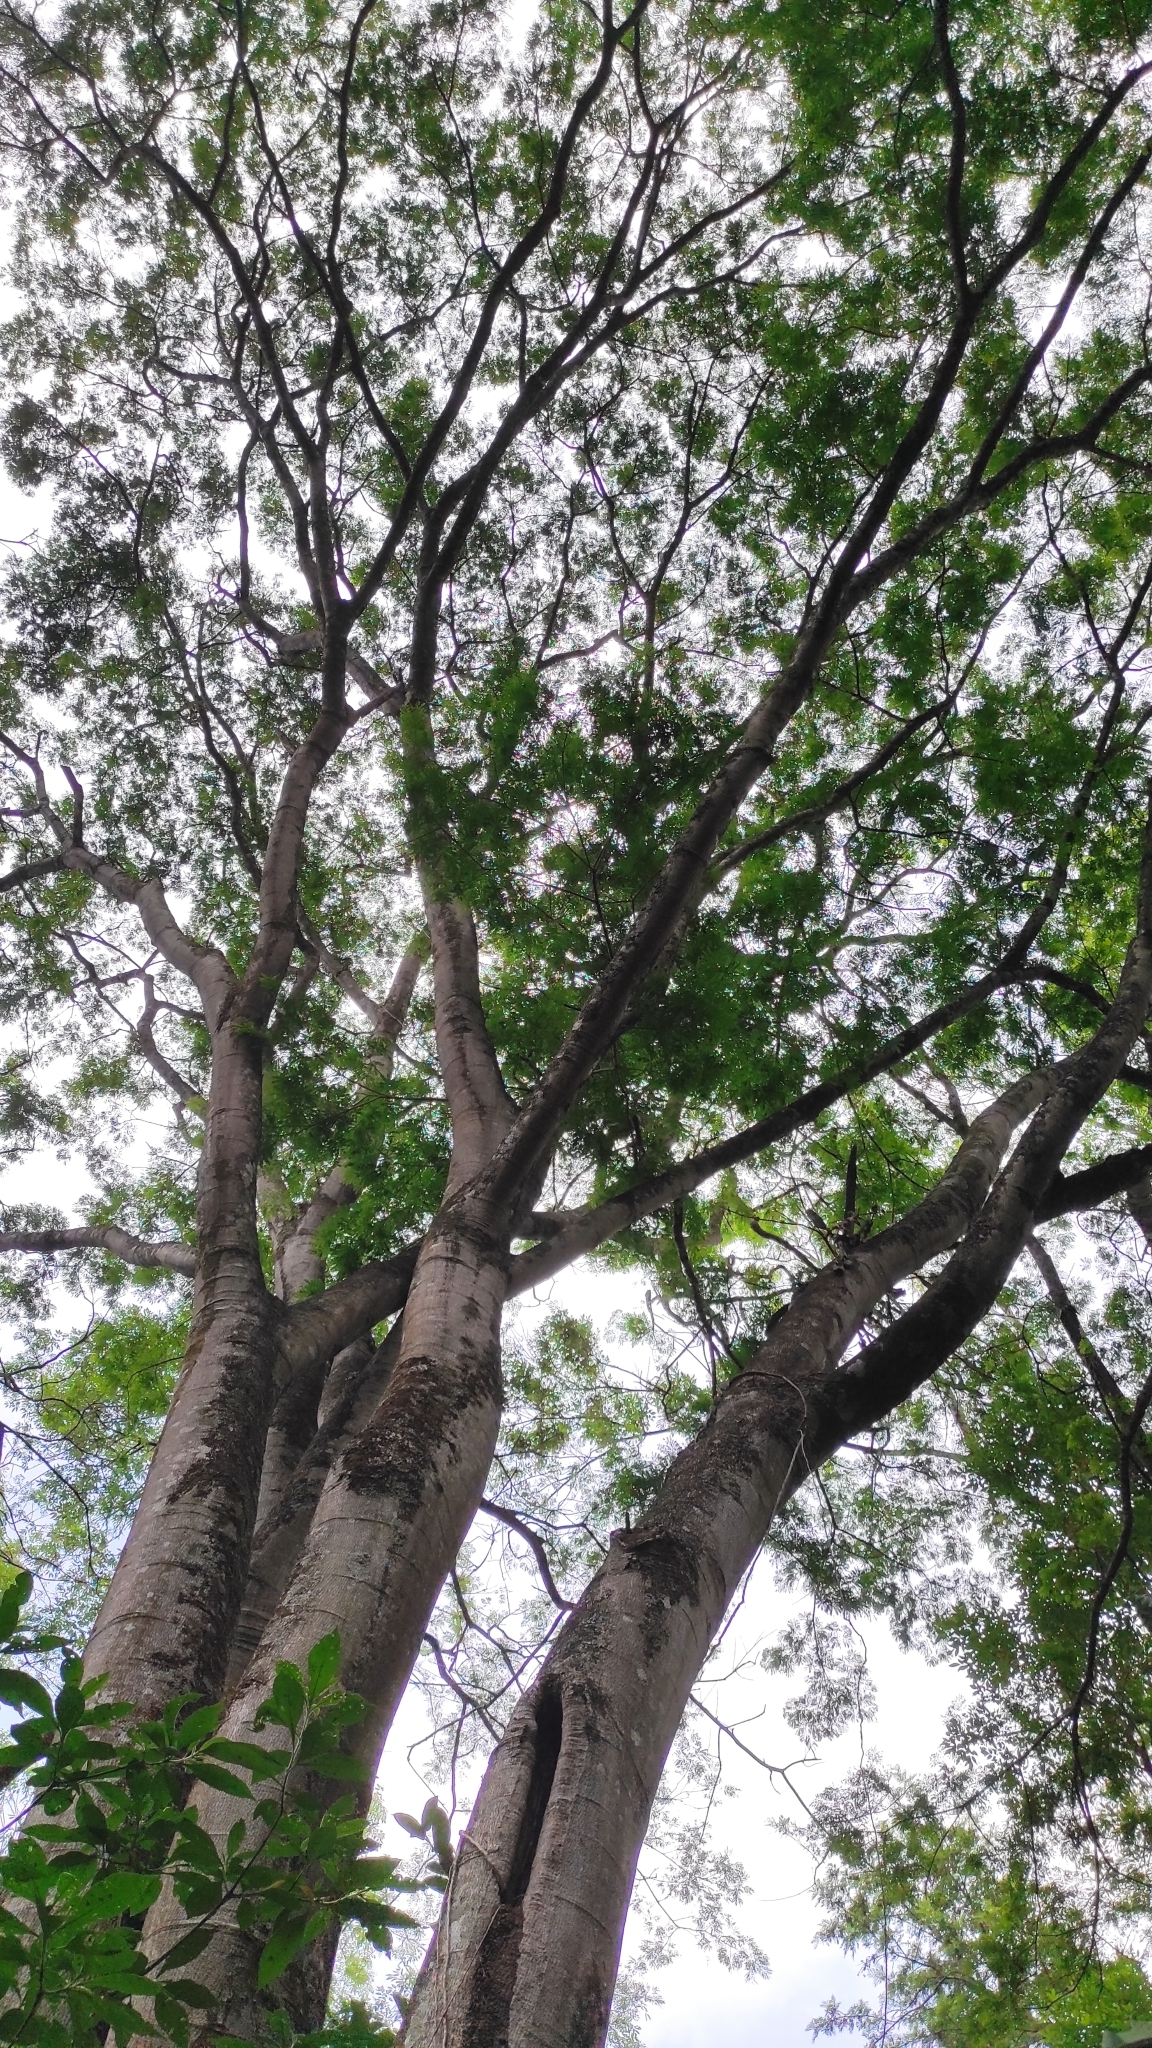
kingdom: Plantae
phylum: Tracheophyta
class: Magnoliopsida
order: Fabales
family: Fabaceae
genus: Enterolobium
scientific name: Enterolobium cyclocarpum
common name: Ear tree
